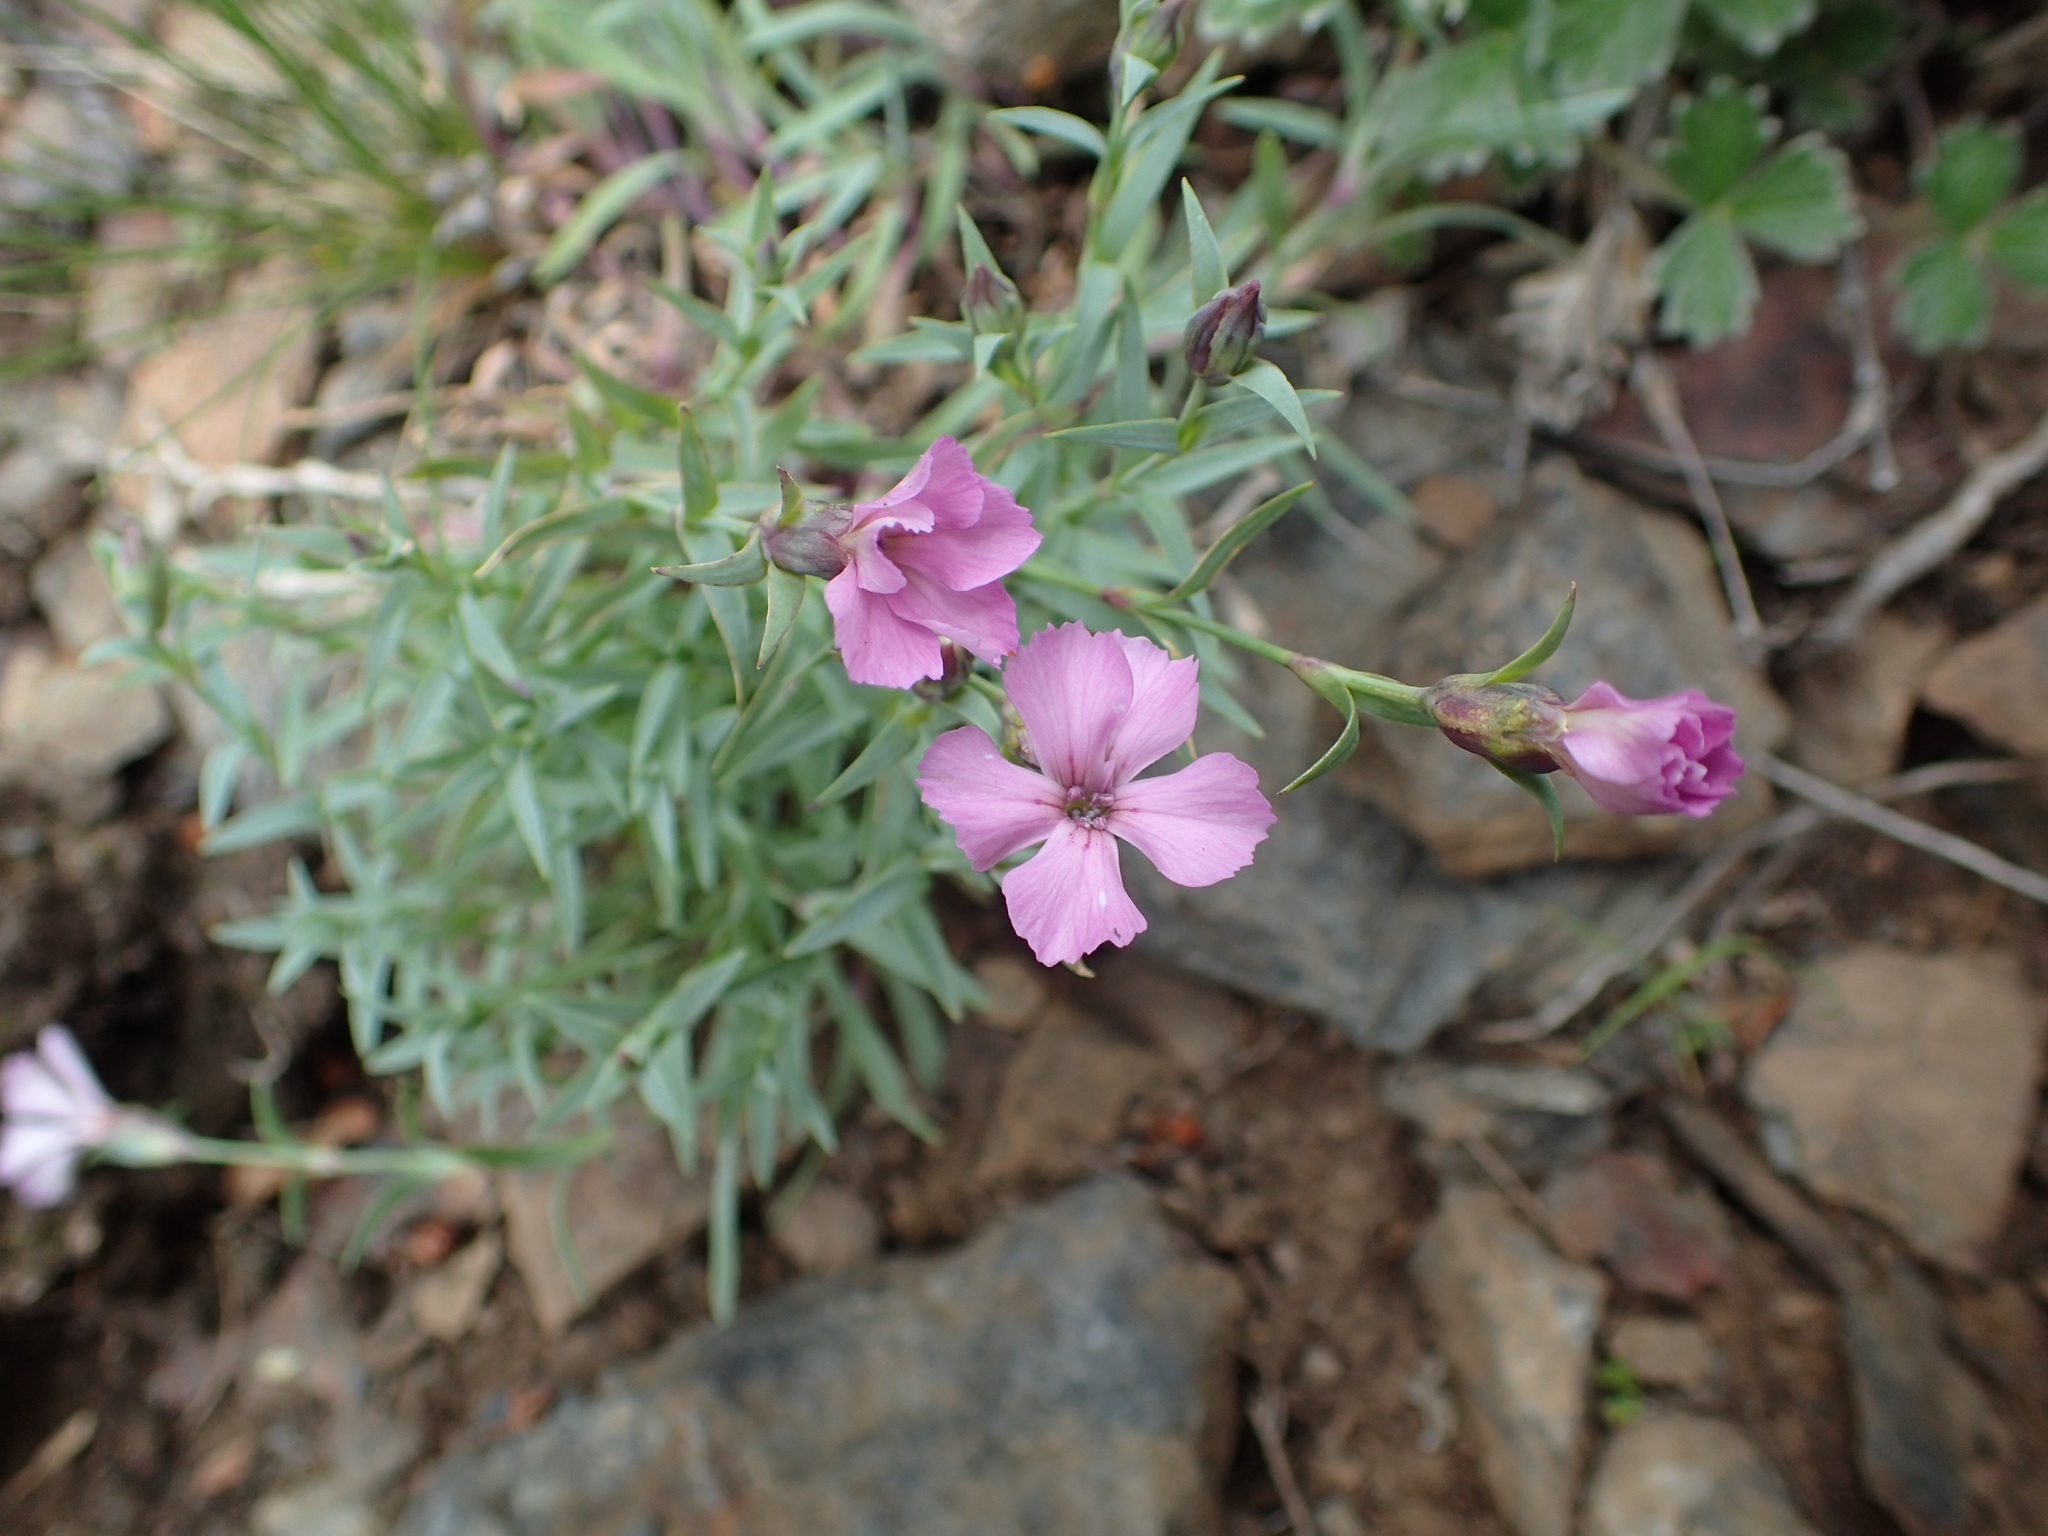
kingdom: Plantae
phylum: Tracheophyta
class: Magnoliopsida
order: Caryophyllales
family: Caryophyllaceae
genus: Dianthus
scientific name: Dianthus repens
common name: Northern pink
